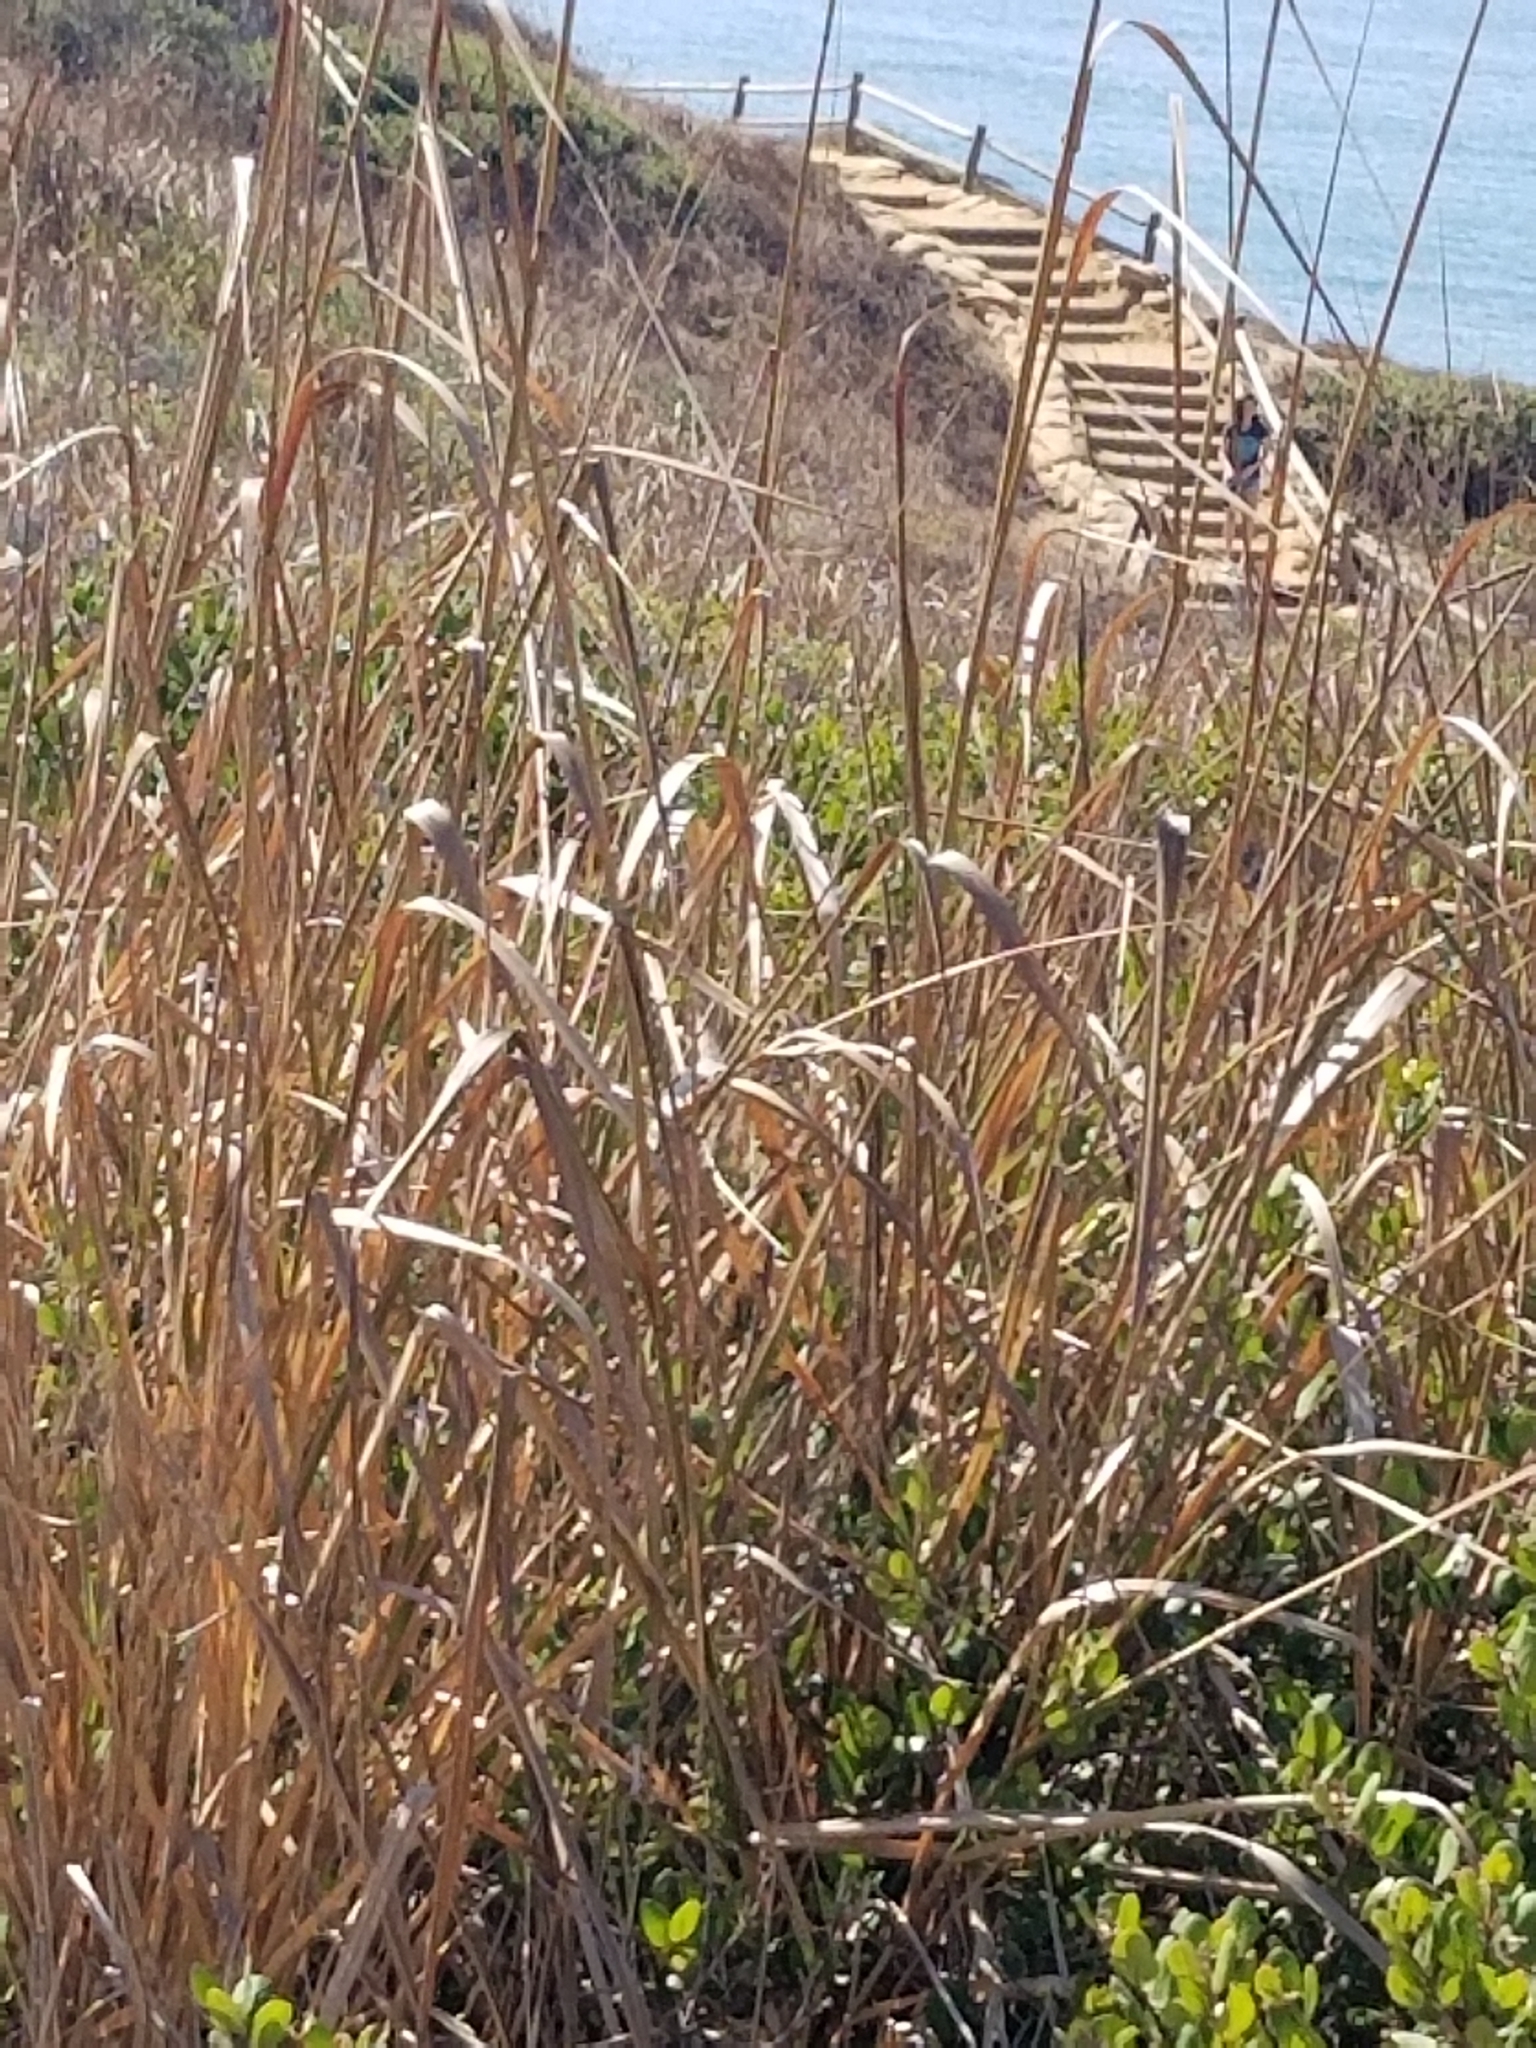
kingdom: Plantae
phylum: Tracheophyta
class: Liliopsida
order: Poales
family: Poaceae
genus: Leymus
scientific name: Leymus condensatus
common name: Giant wild rye
